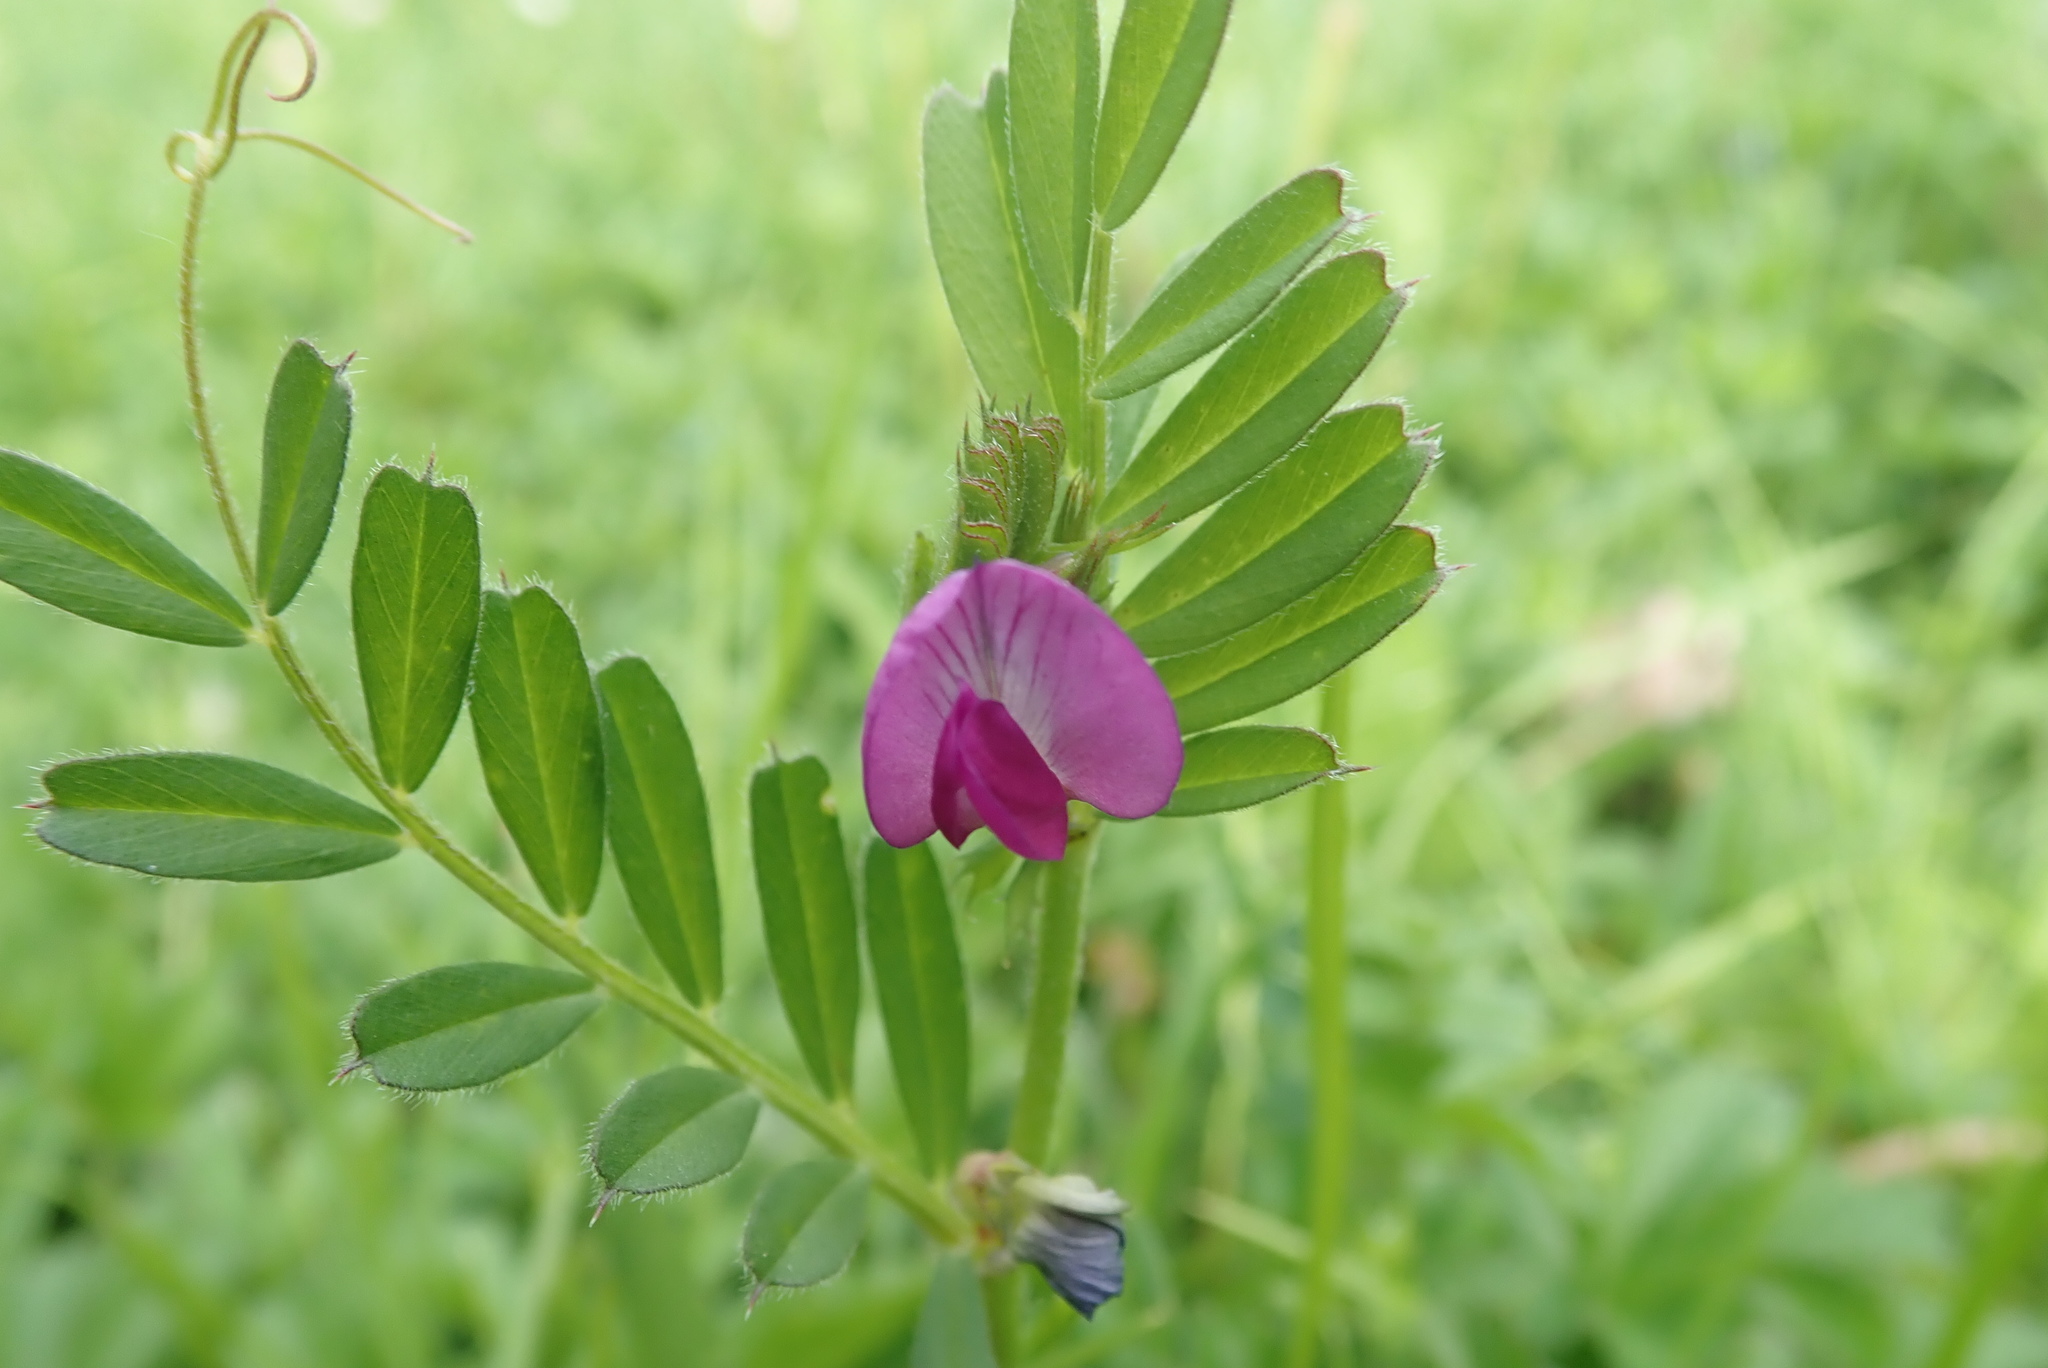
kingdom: Plantae
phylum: Tracheophyta
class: Magnoliopsida
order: Fabales
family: Fabaceae
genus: Vicia
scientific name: Vicia sativa
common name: Garden vetch
